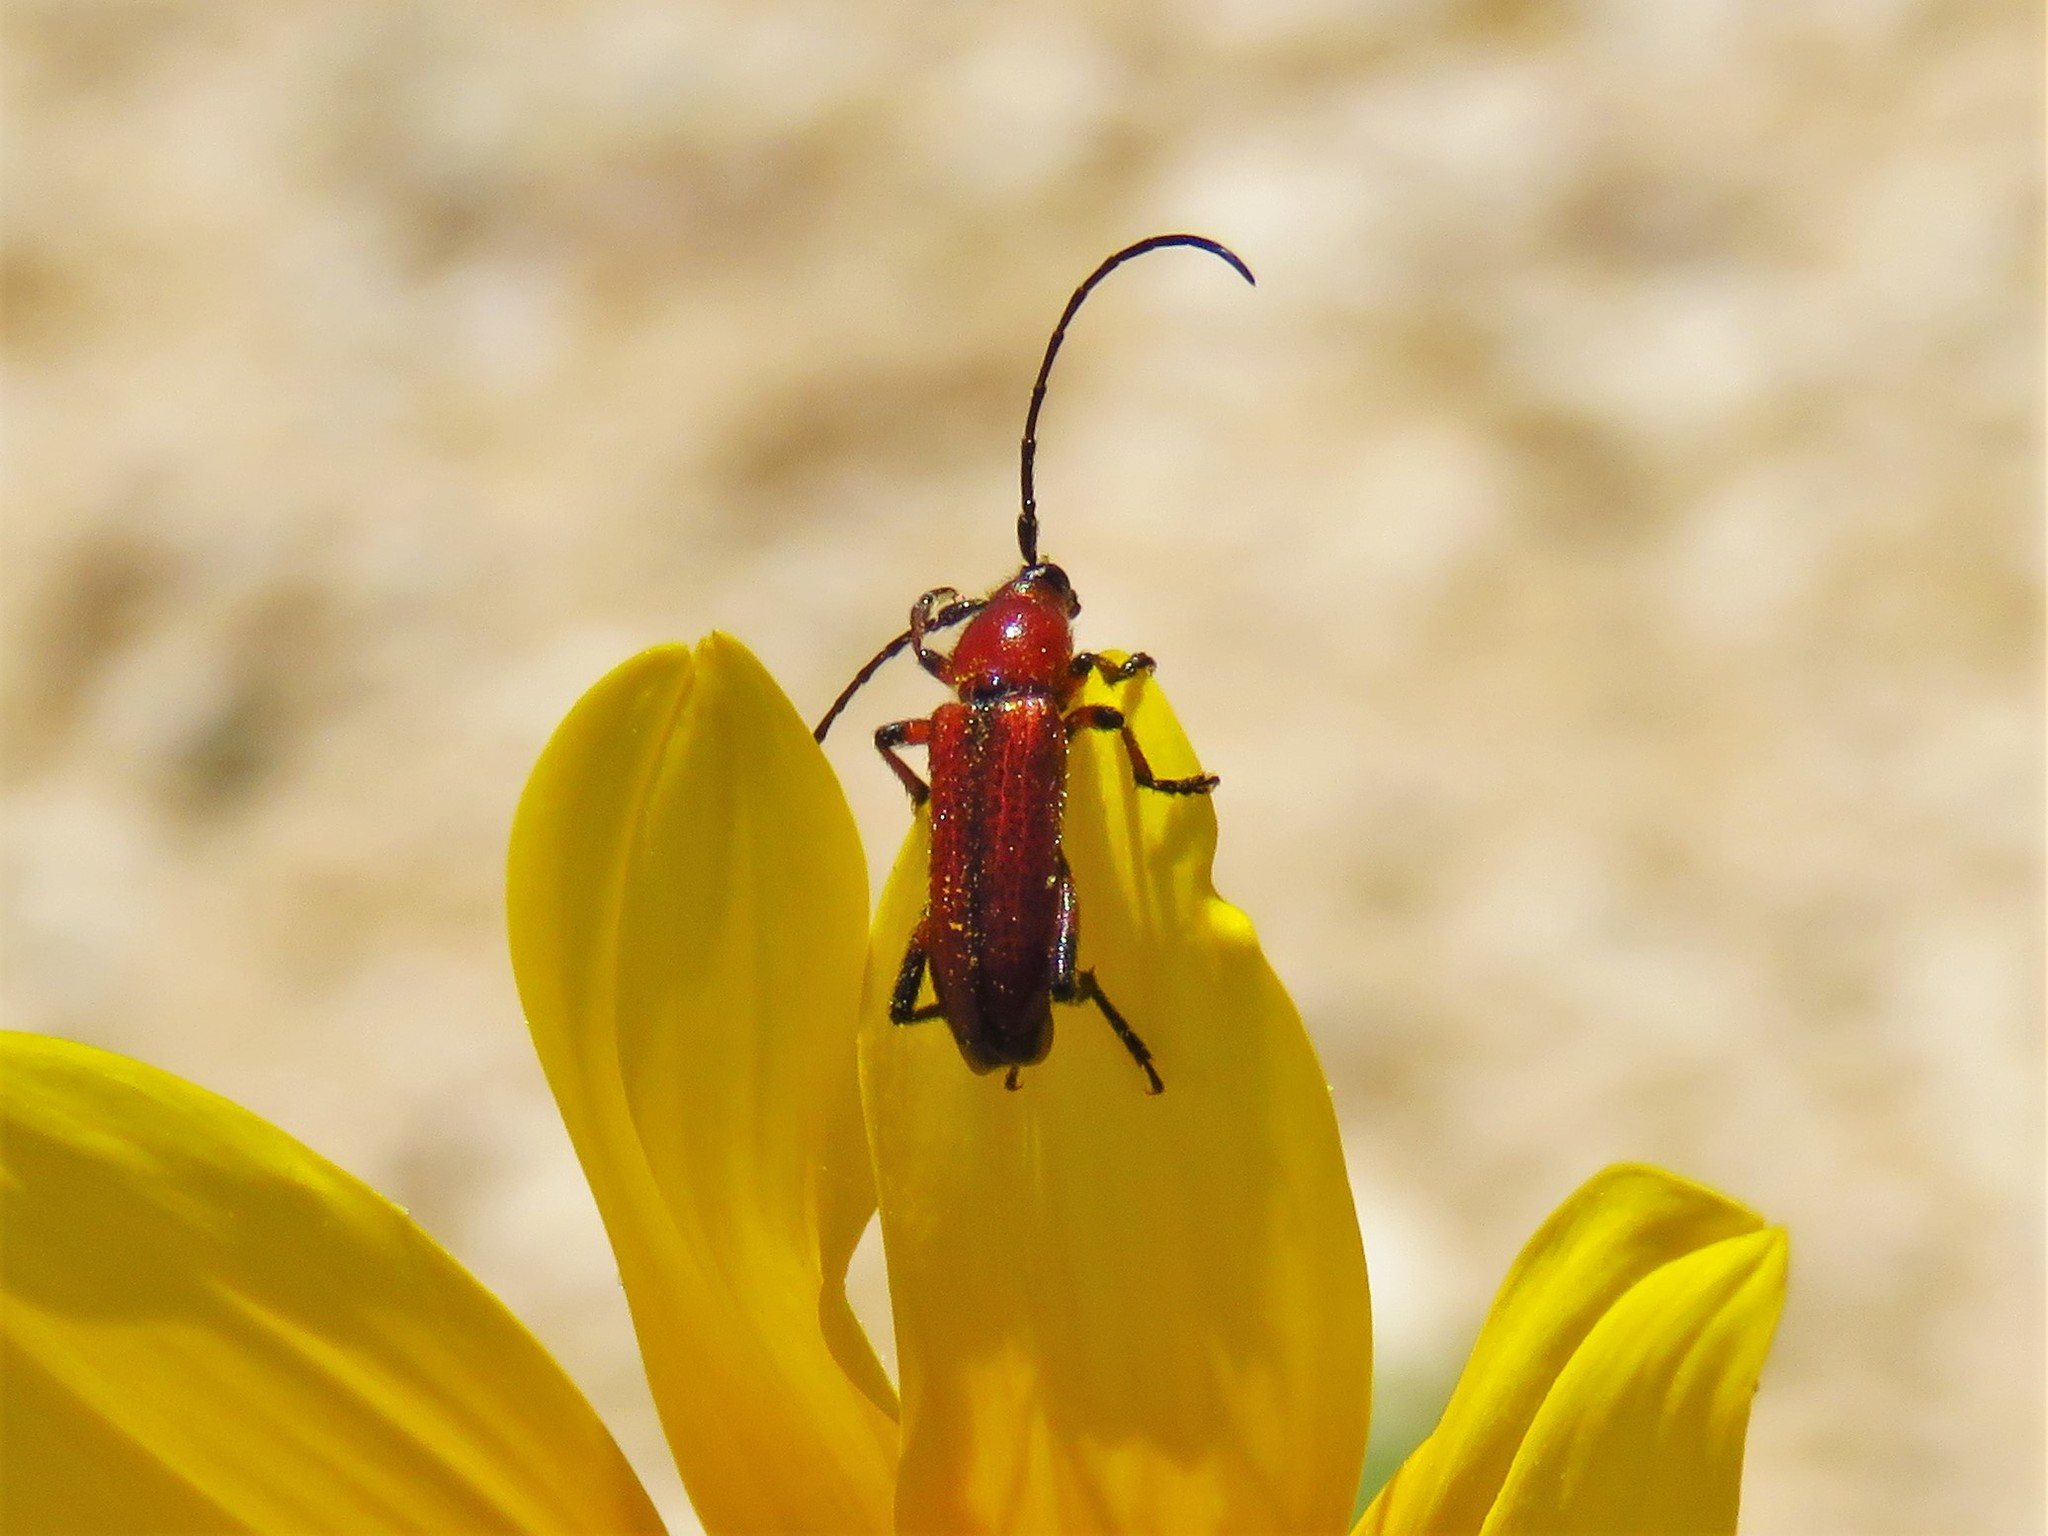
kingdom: Animalia
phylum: Arthropoda
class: Insecta
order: Coleoptera
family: Cerambycidae
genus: Batyle
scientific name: Batyle suturalis
